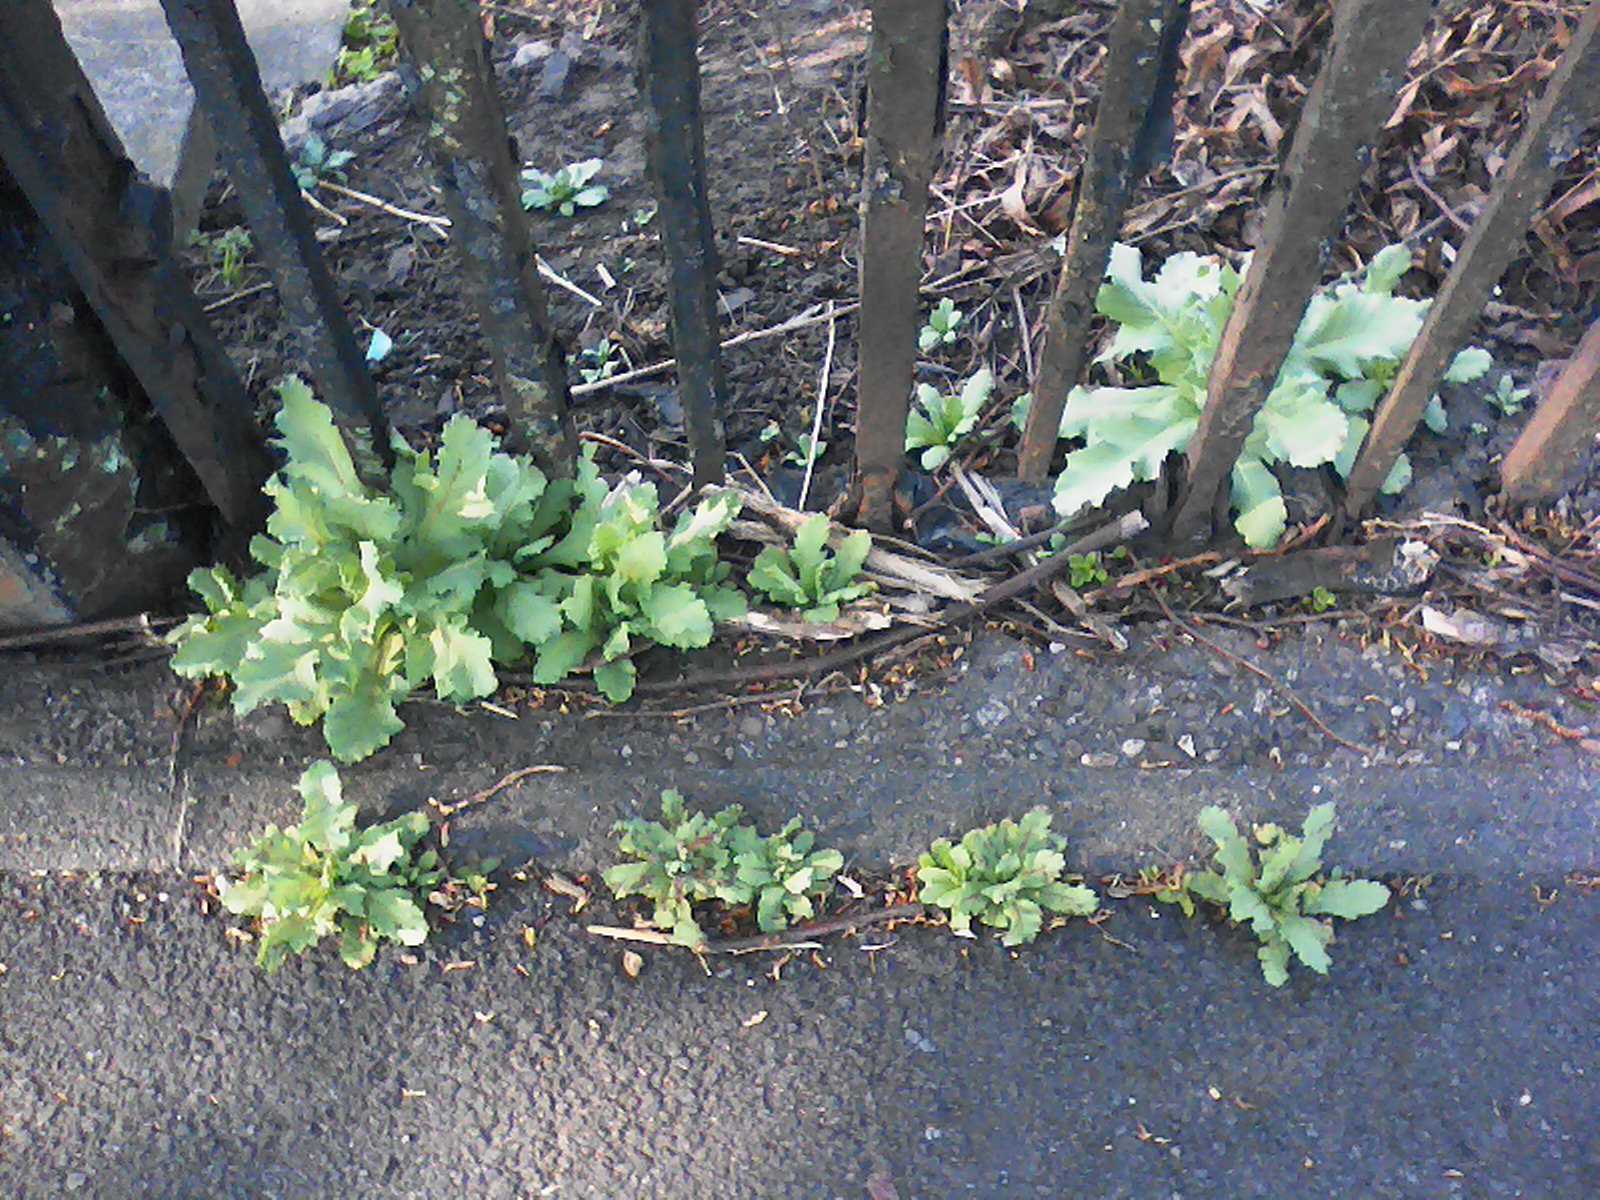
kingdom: Plantae
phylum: Tracheophyta
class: Magnoliopsida
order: Ranunculales
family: Papaveraceae
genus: Papaver
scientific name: Papaver somniferum
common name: Opium poppy
